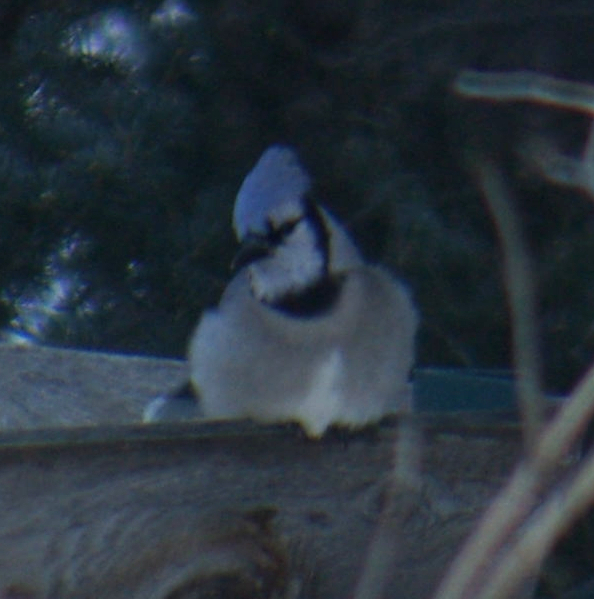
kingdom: Animalia
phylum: Chordata
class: Aves
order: Passeriformes
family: Corvidae
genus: Cyanocitta
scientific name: Cyanocitta cristata
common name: Blue jay
